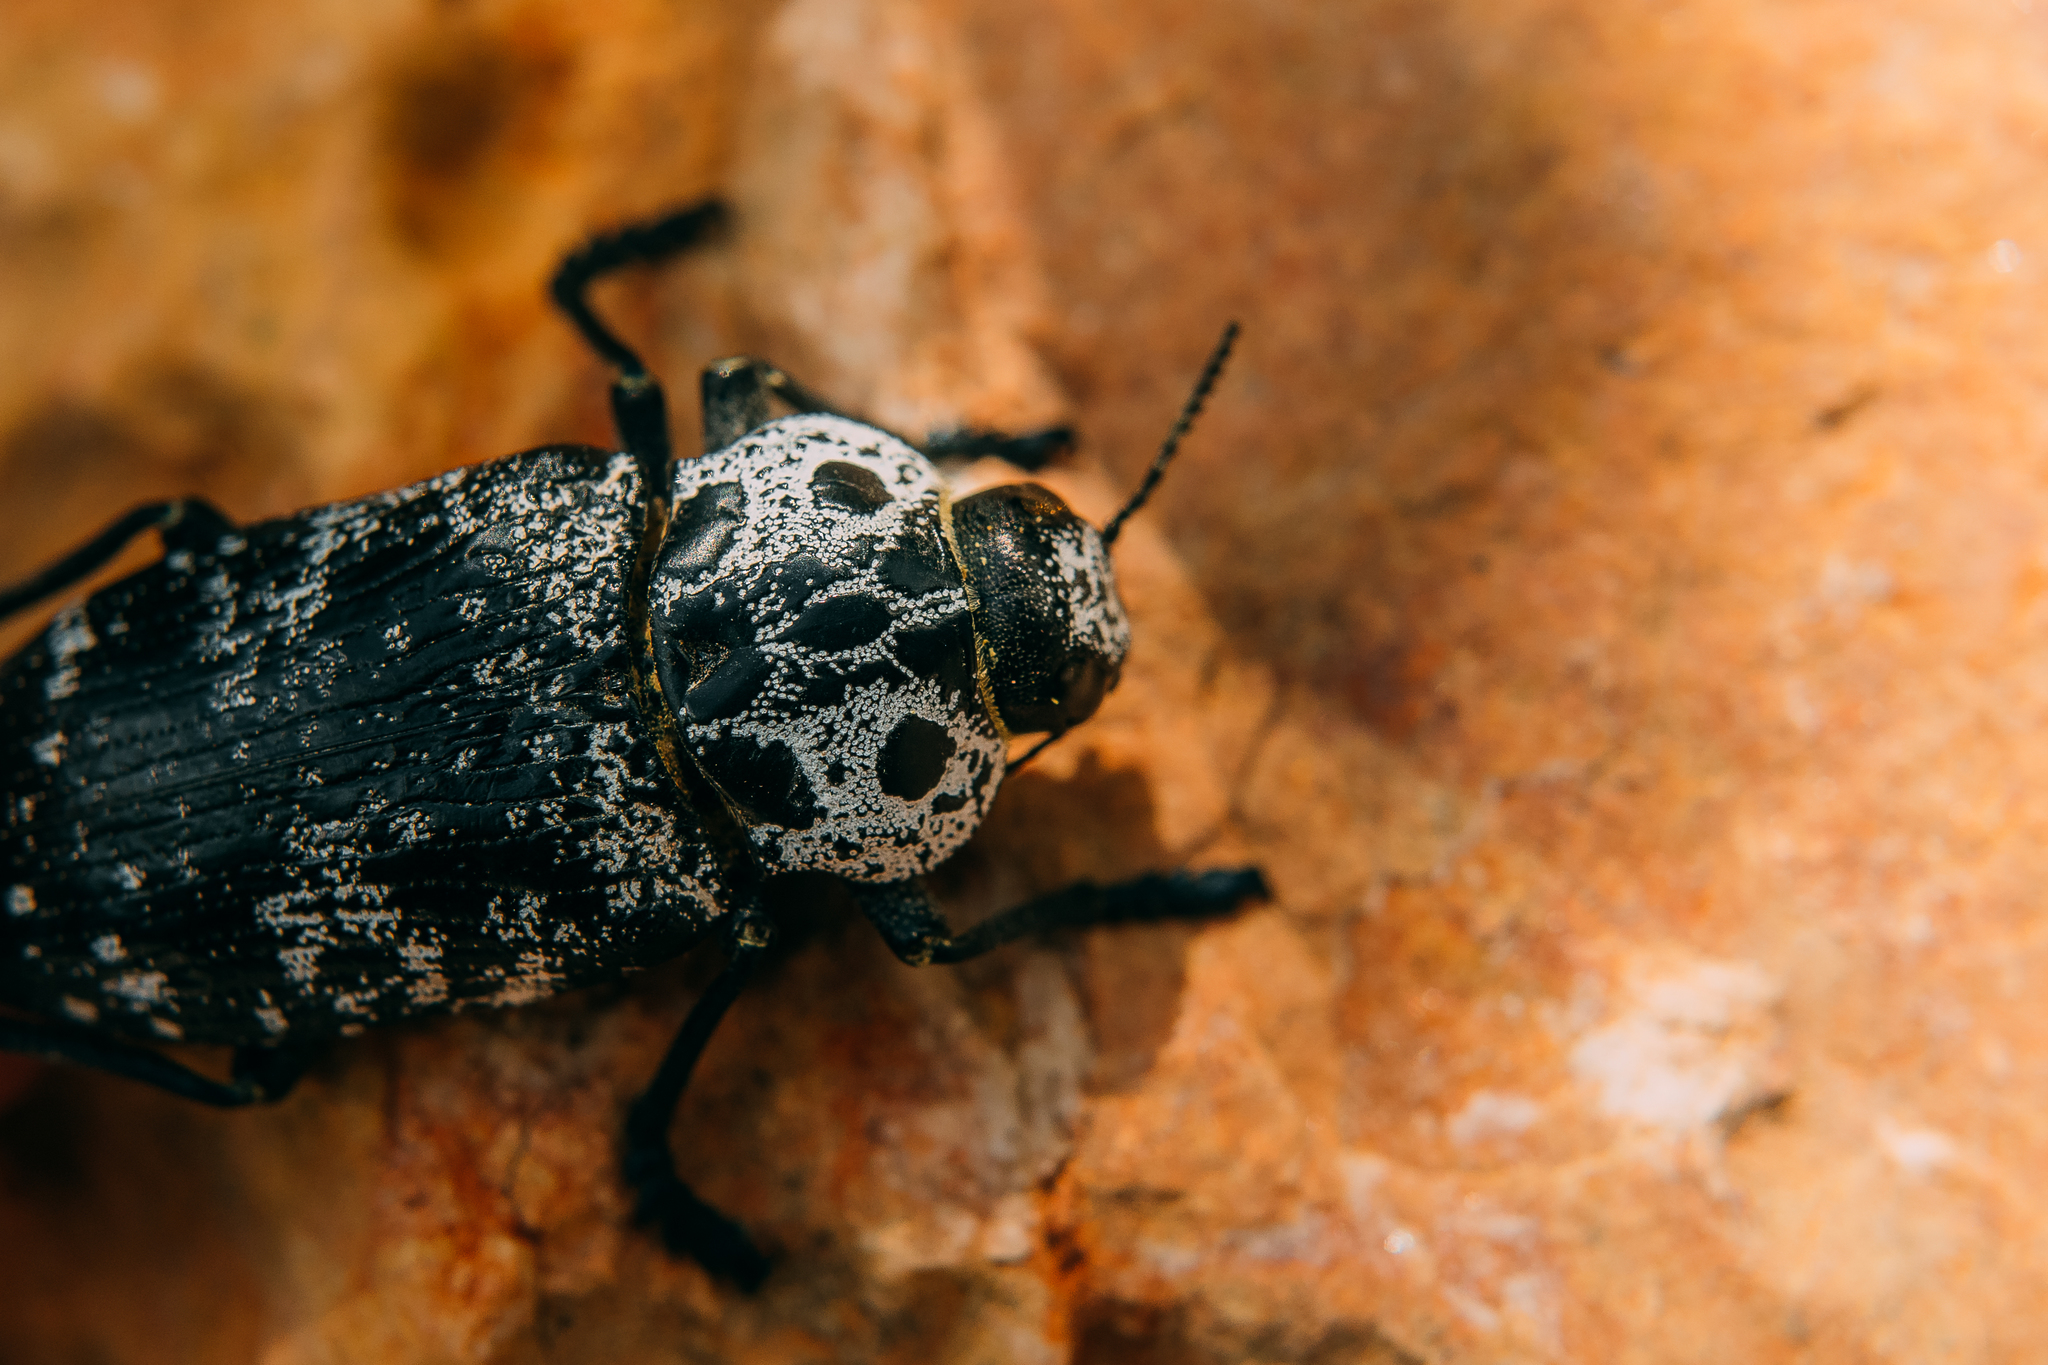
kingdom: Animalia
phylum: Arthropoda
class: Insecta
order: Coleoptera
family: Buprestidae
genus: Capnodis
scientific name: Capnodis cariosa
